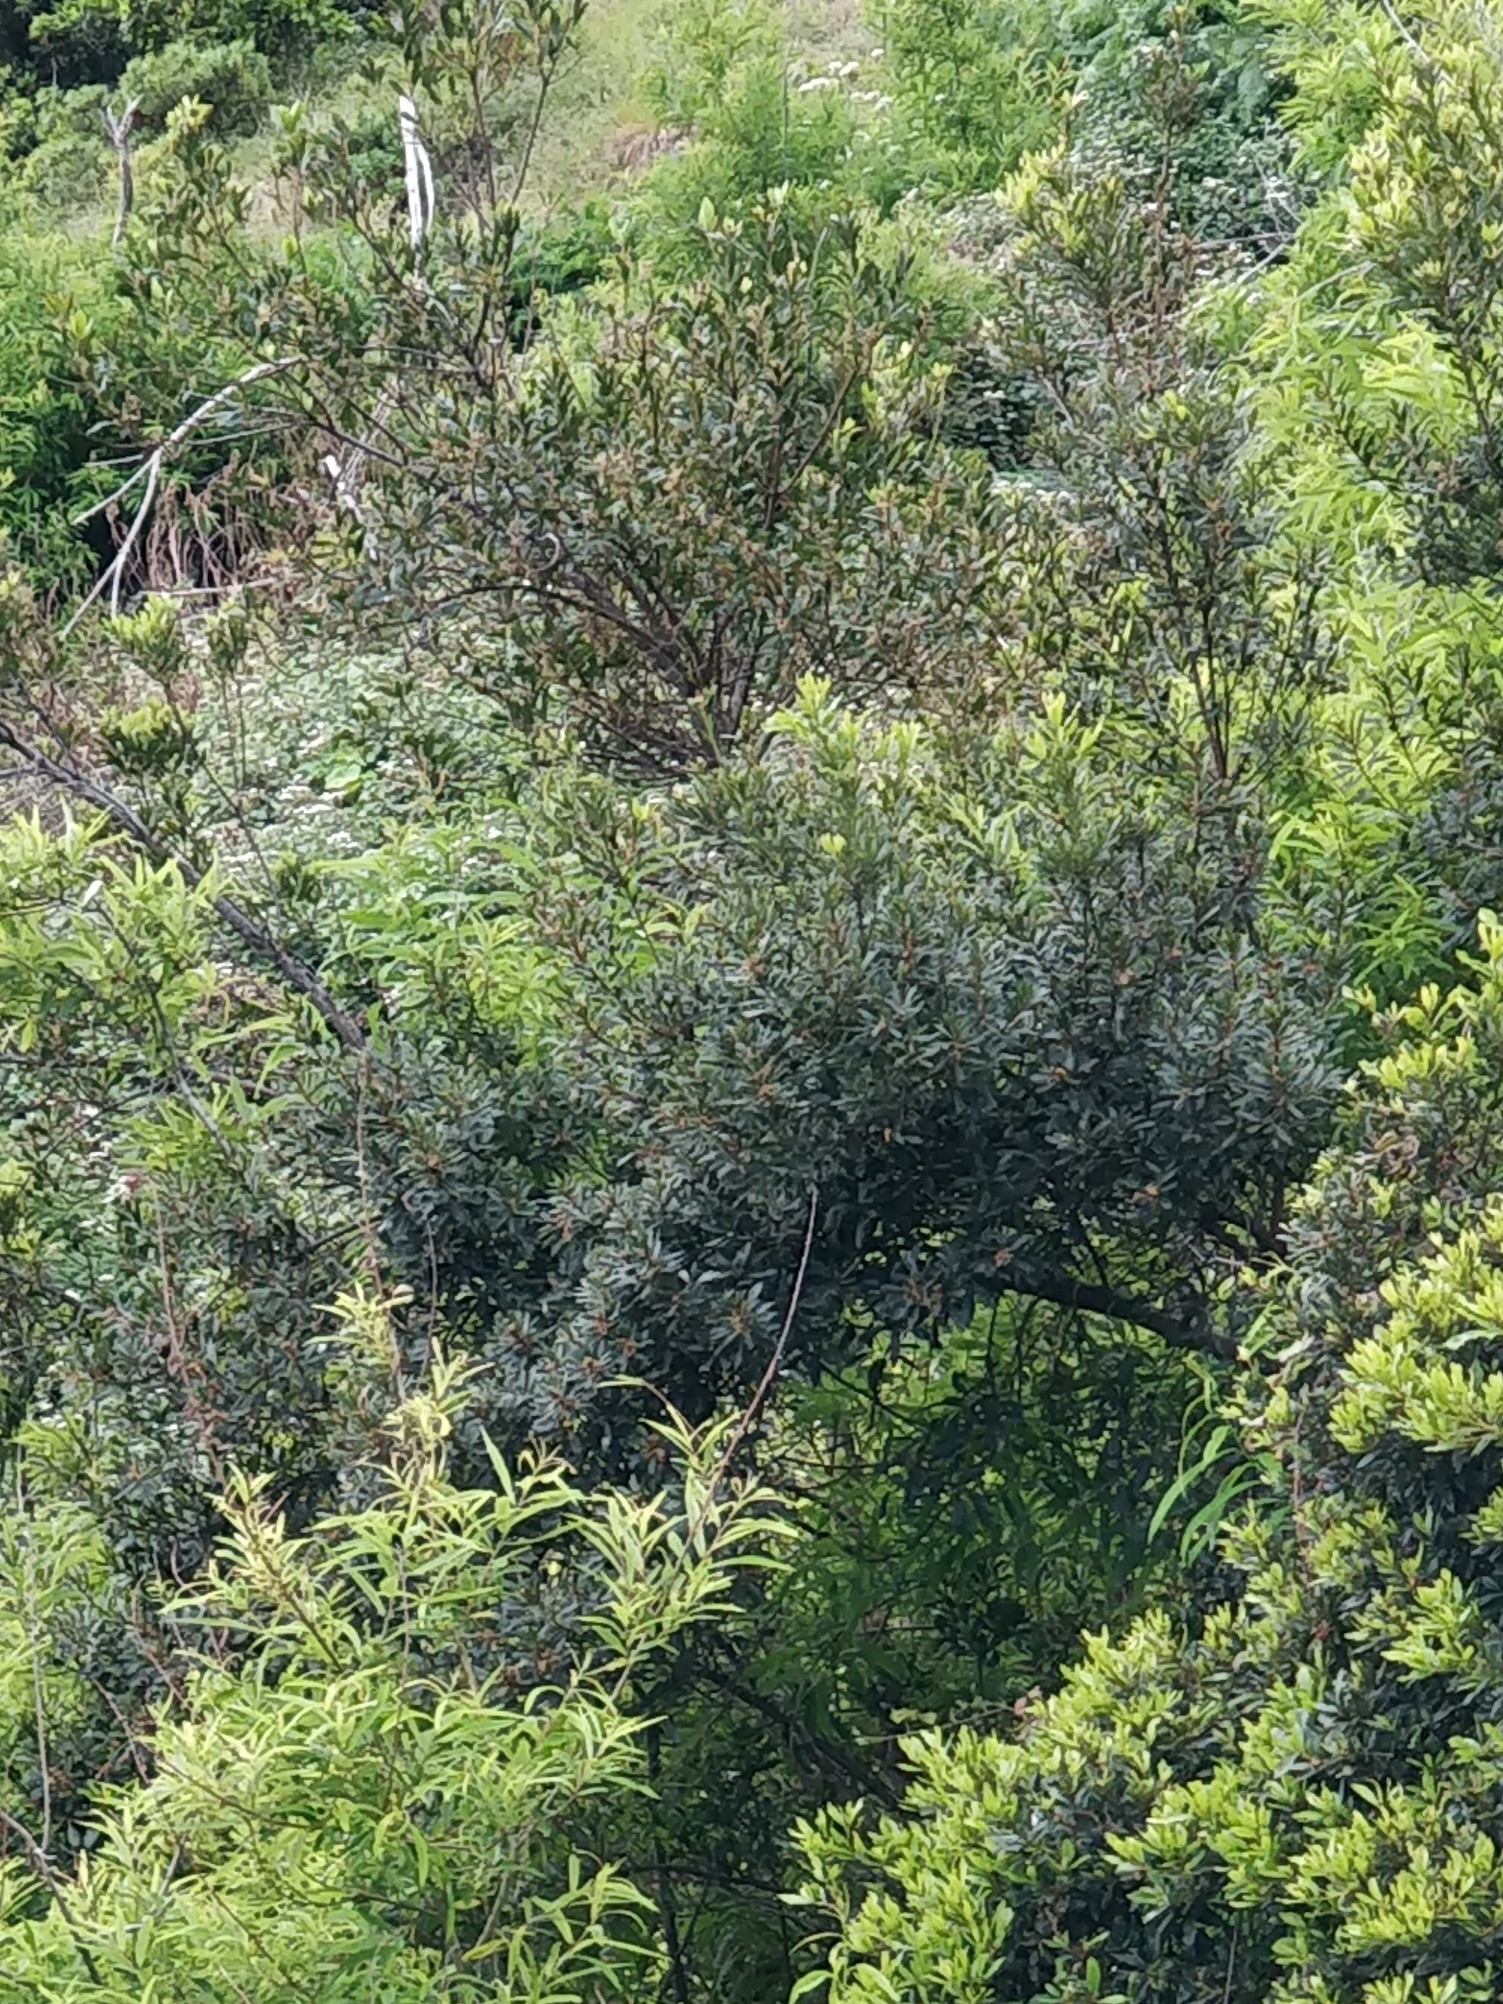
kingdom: Plantae
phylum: Tracheophyta
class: Magnoliopsida
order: Fagales
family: Myricaceae
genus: Morella
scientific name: Morella faya
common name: Firetree
